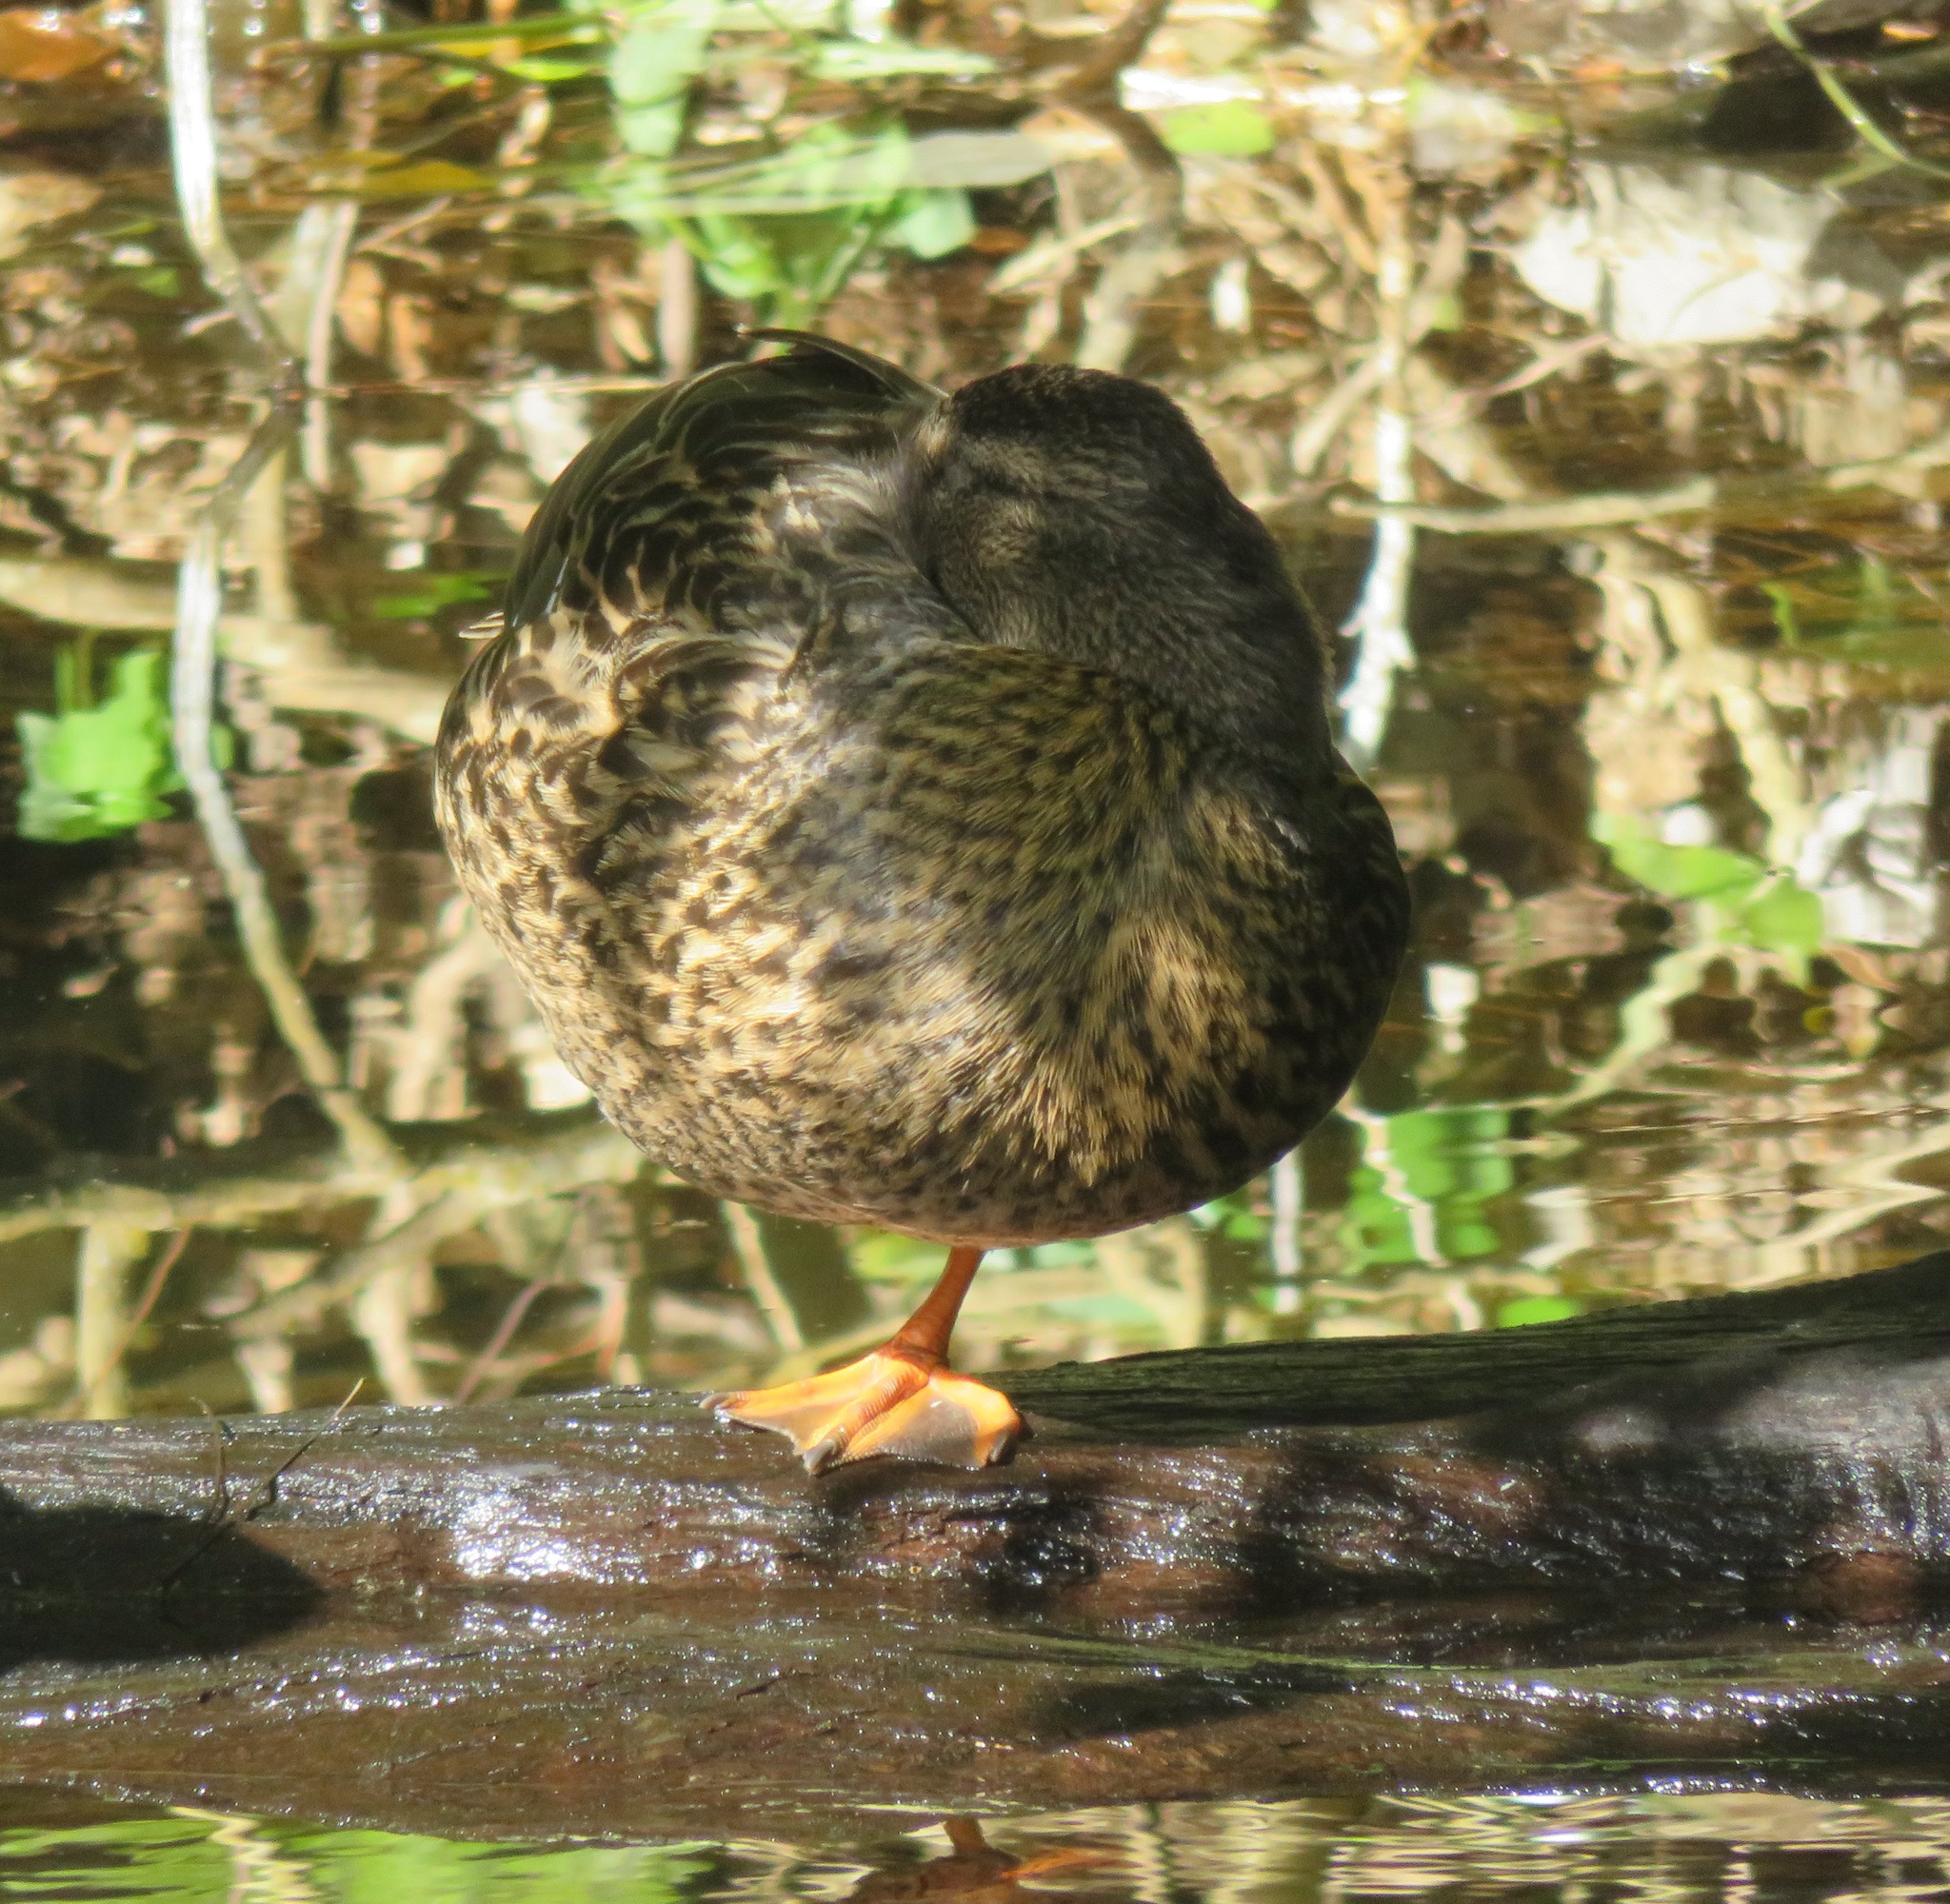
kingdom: Animalia
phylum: Chordata
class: Aves
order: Anseriformes
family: Anatidae
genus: Anas
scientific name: Anas platyrhynchos
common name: Mallard
